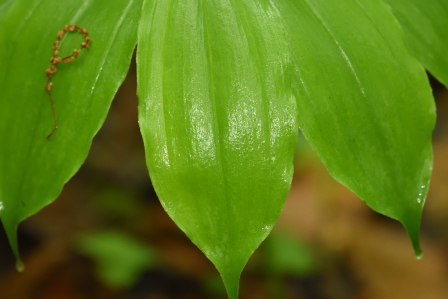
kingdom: Plantae
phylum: Tracheophyta
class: Liliopsida
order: Asparagales
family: Asparagaceae
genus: Maianthemum
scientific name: Maianthemum racemosum
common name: False spikenard
